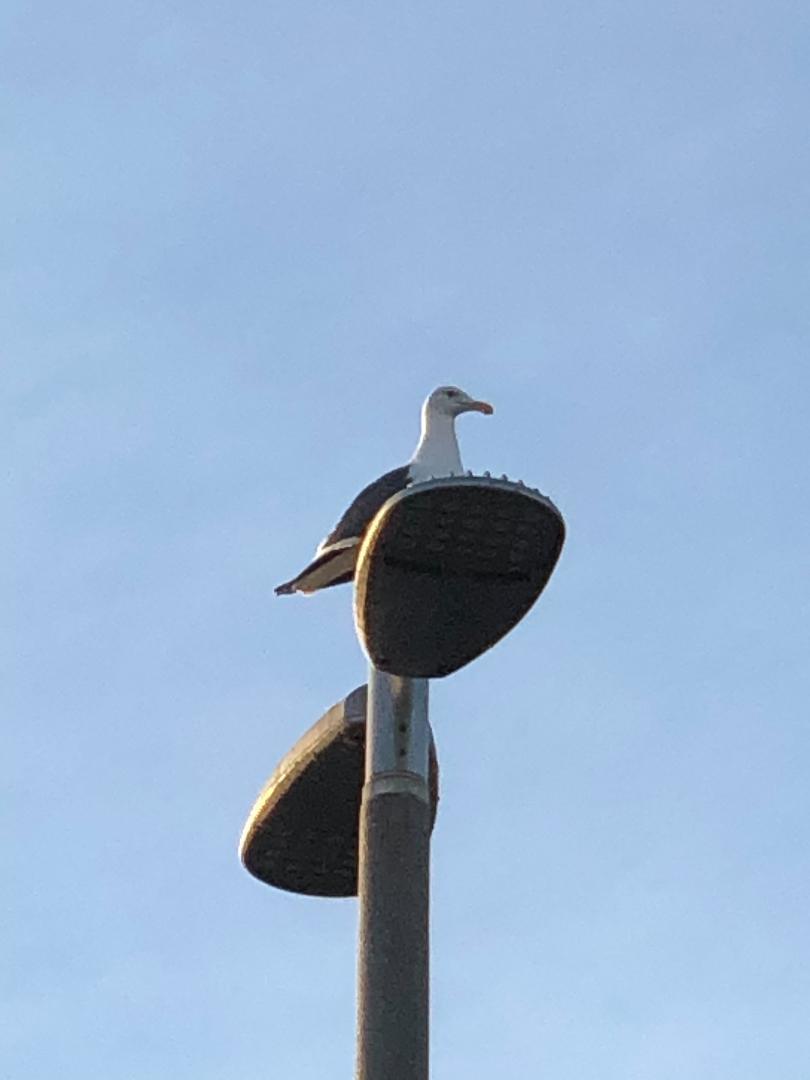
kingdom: Animalia
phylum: Chordata
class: Aves
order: Charadriiformes
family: Laridae
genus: Larus
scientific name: Larus occidentalis
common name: Western gull
